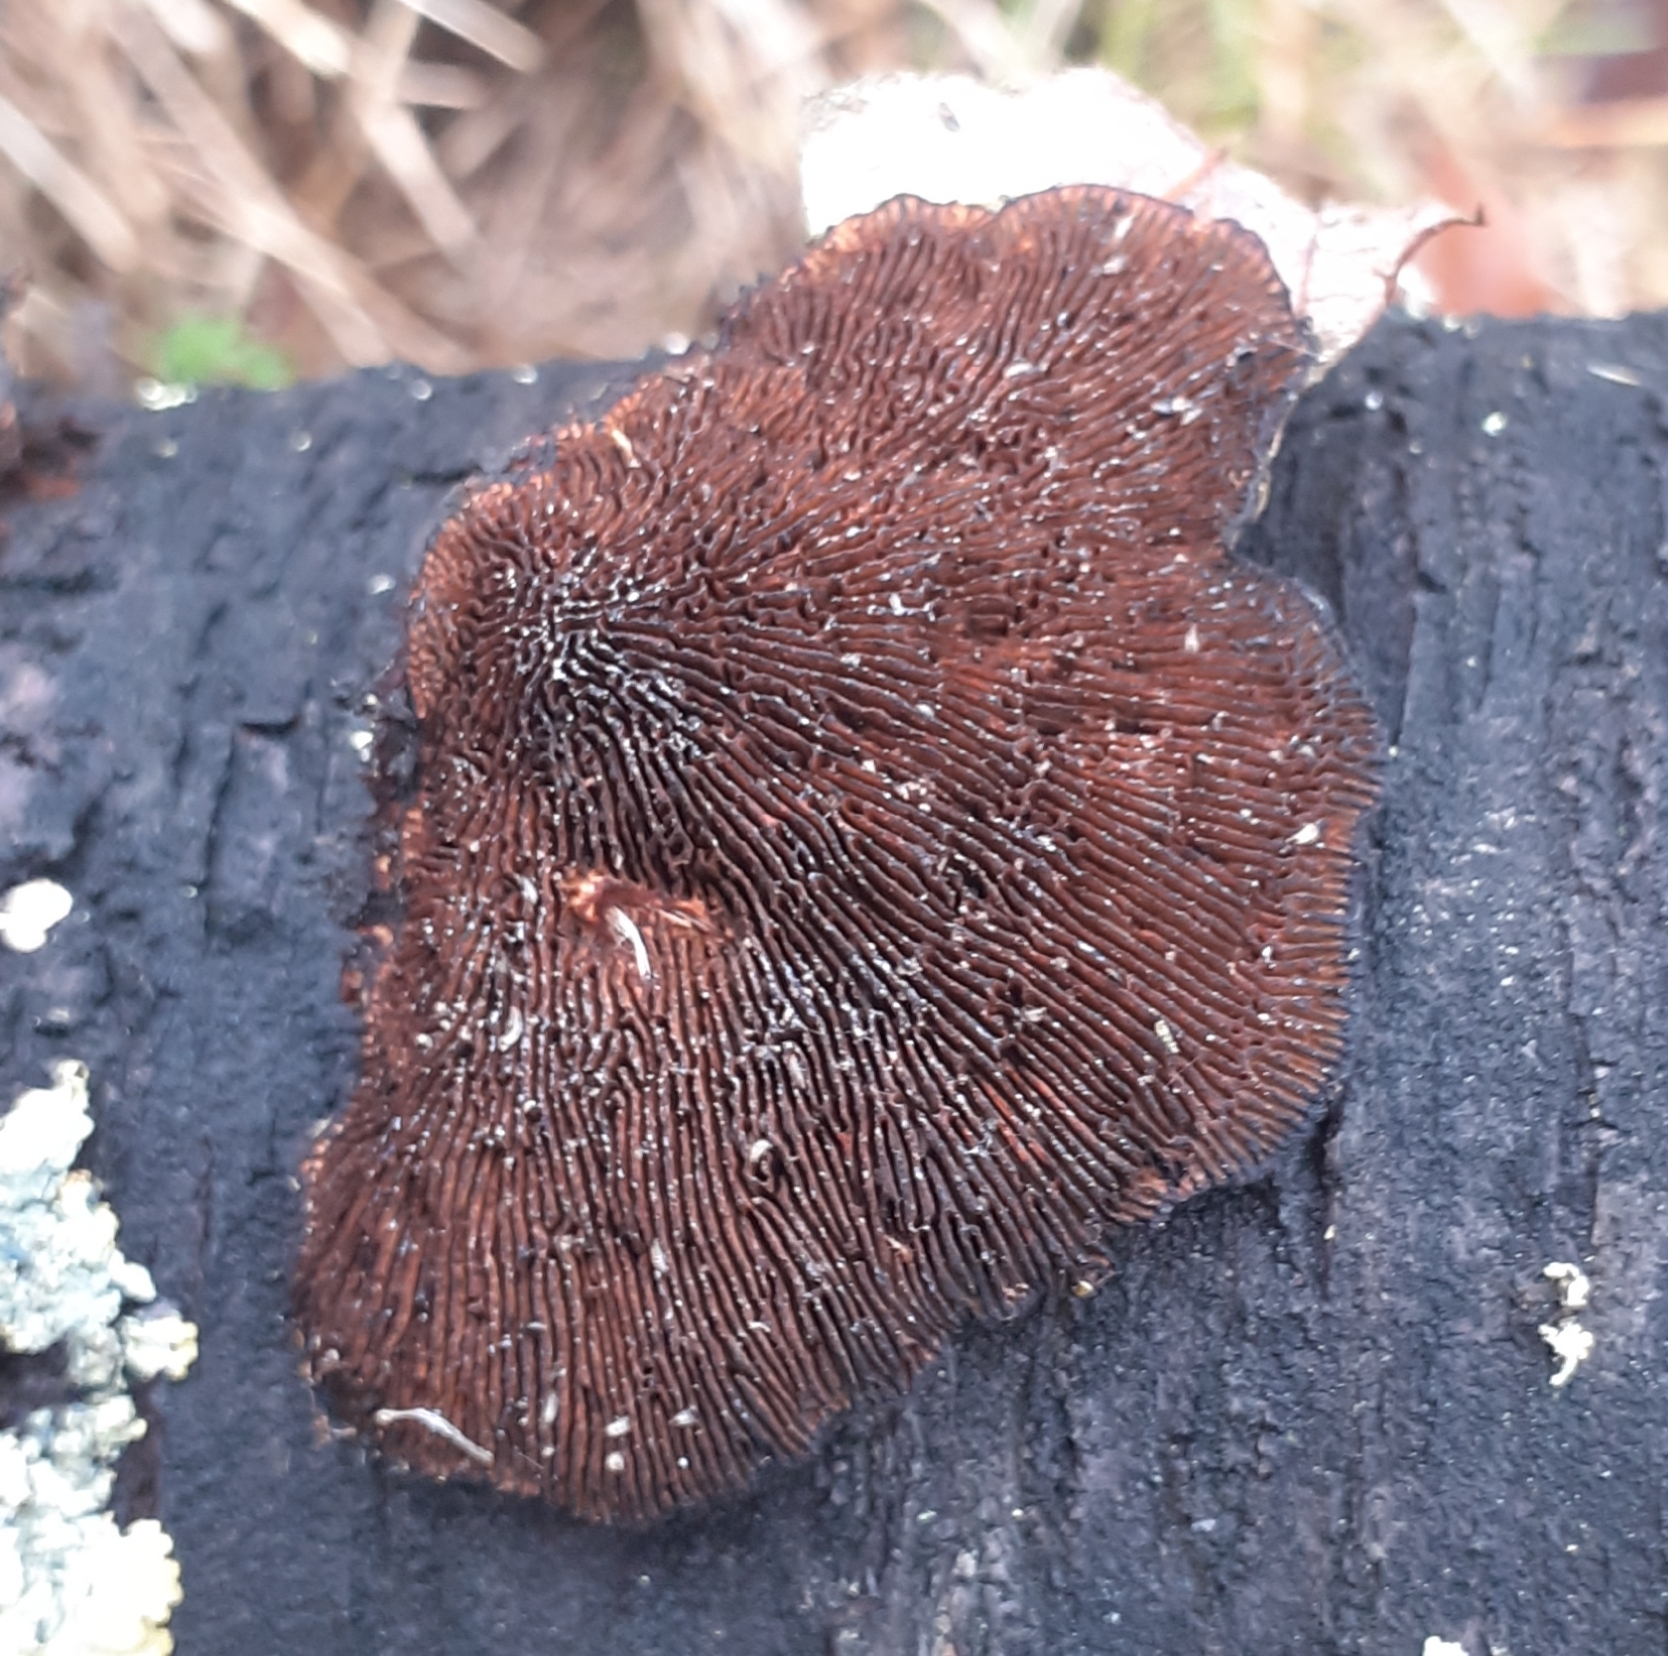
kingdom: Fungi
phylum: Basidiomycota
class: Agaricomycetes
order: Polyporales
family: Polyporaceae
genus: Daedaleopsis
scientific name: Daedaleopsis tricolor
